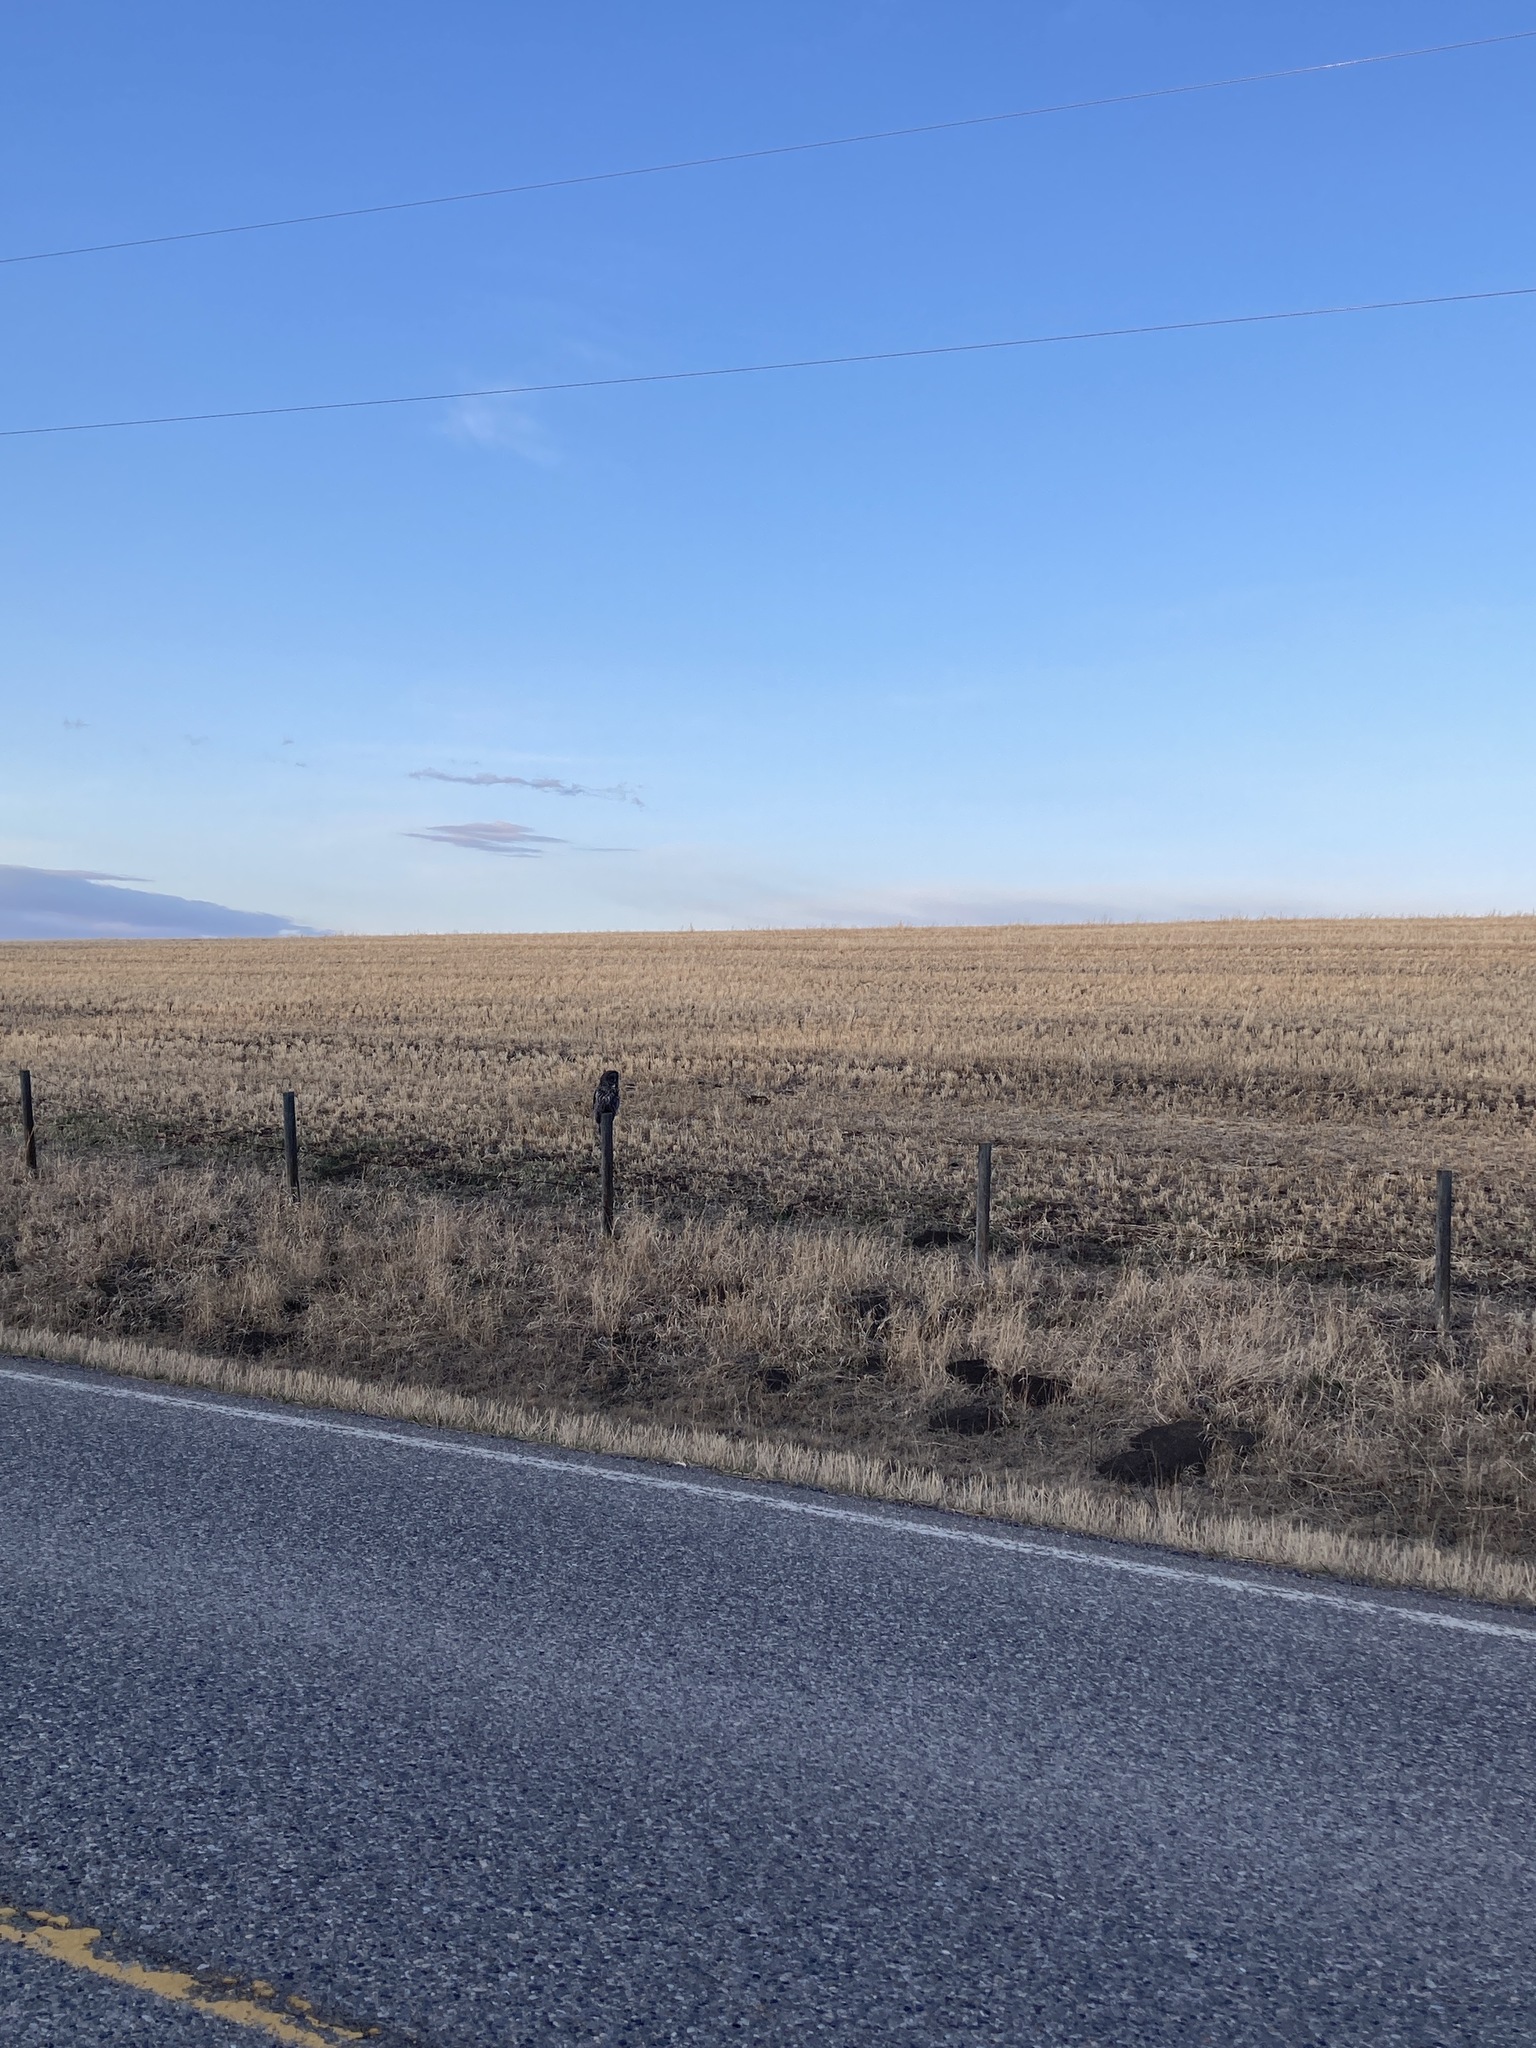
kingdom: Animalia
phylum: Chordata
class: Aves
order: Strigiformes
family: Strigidae
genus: Strix
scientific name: Strix nebulosa
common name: Great grey owl
